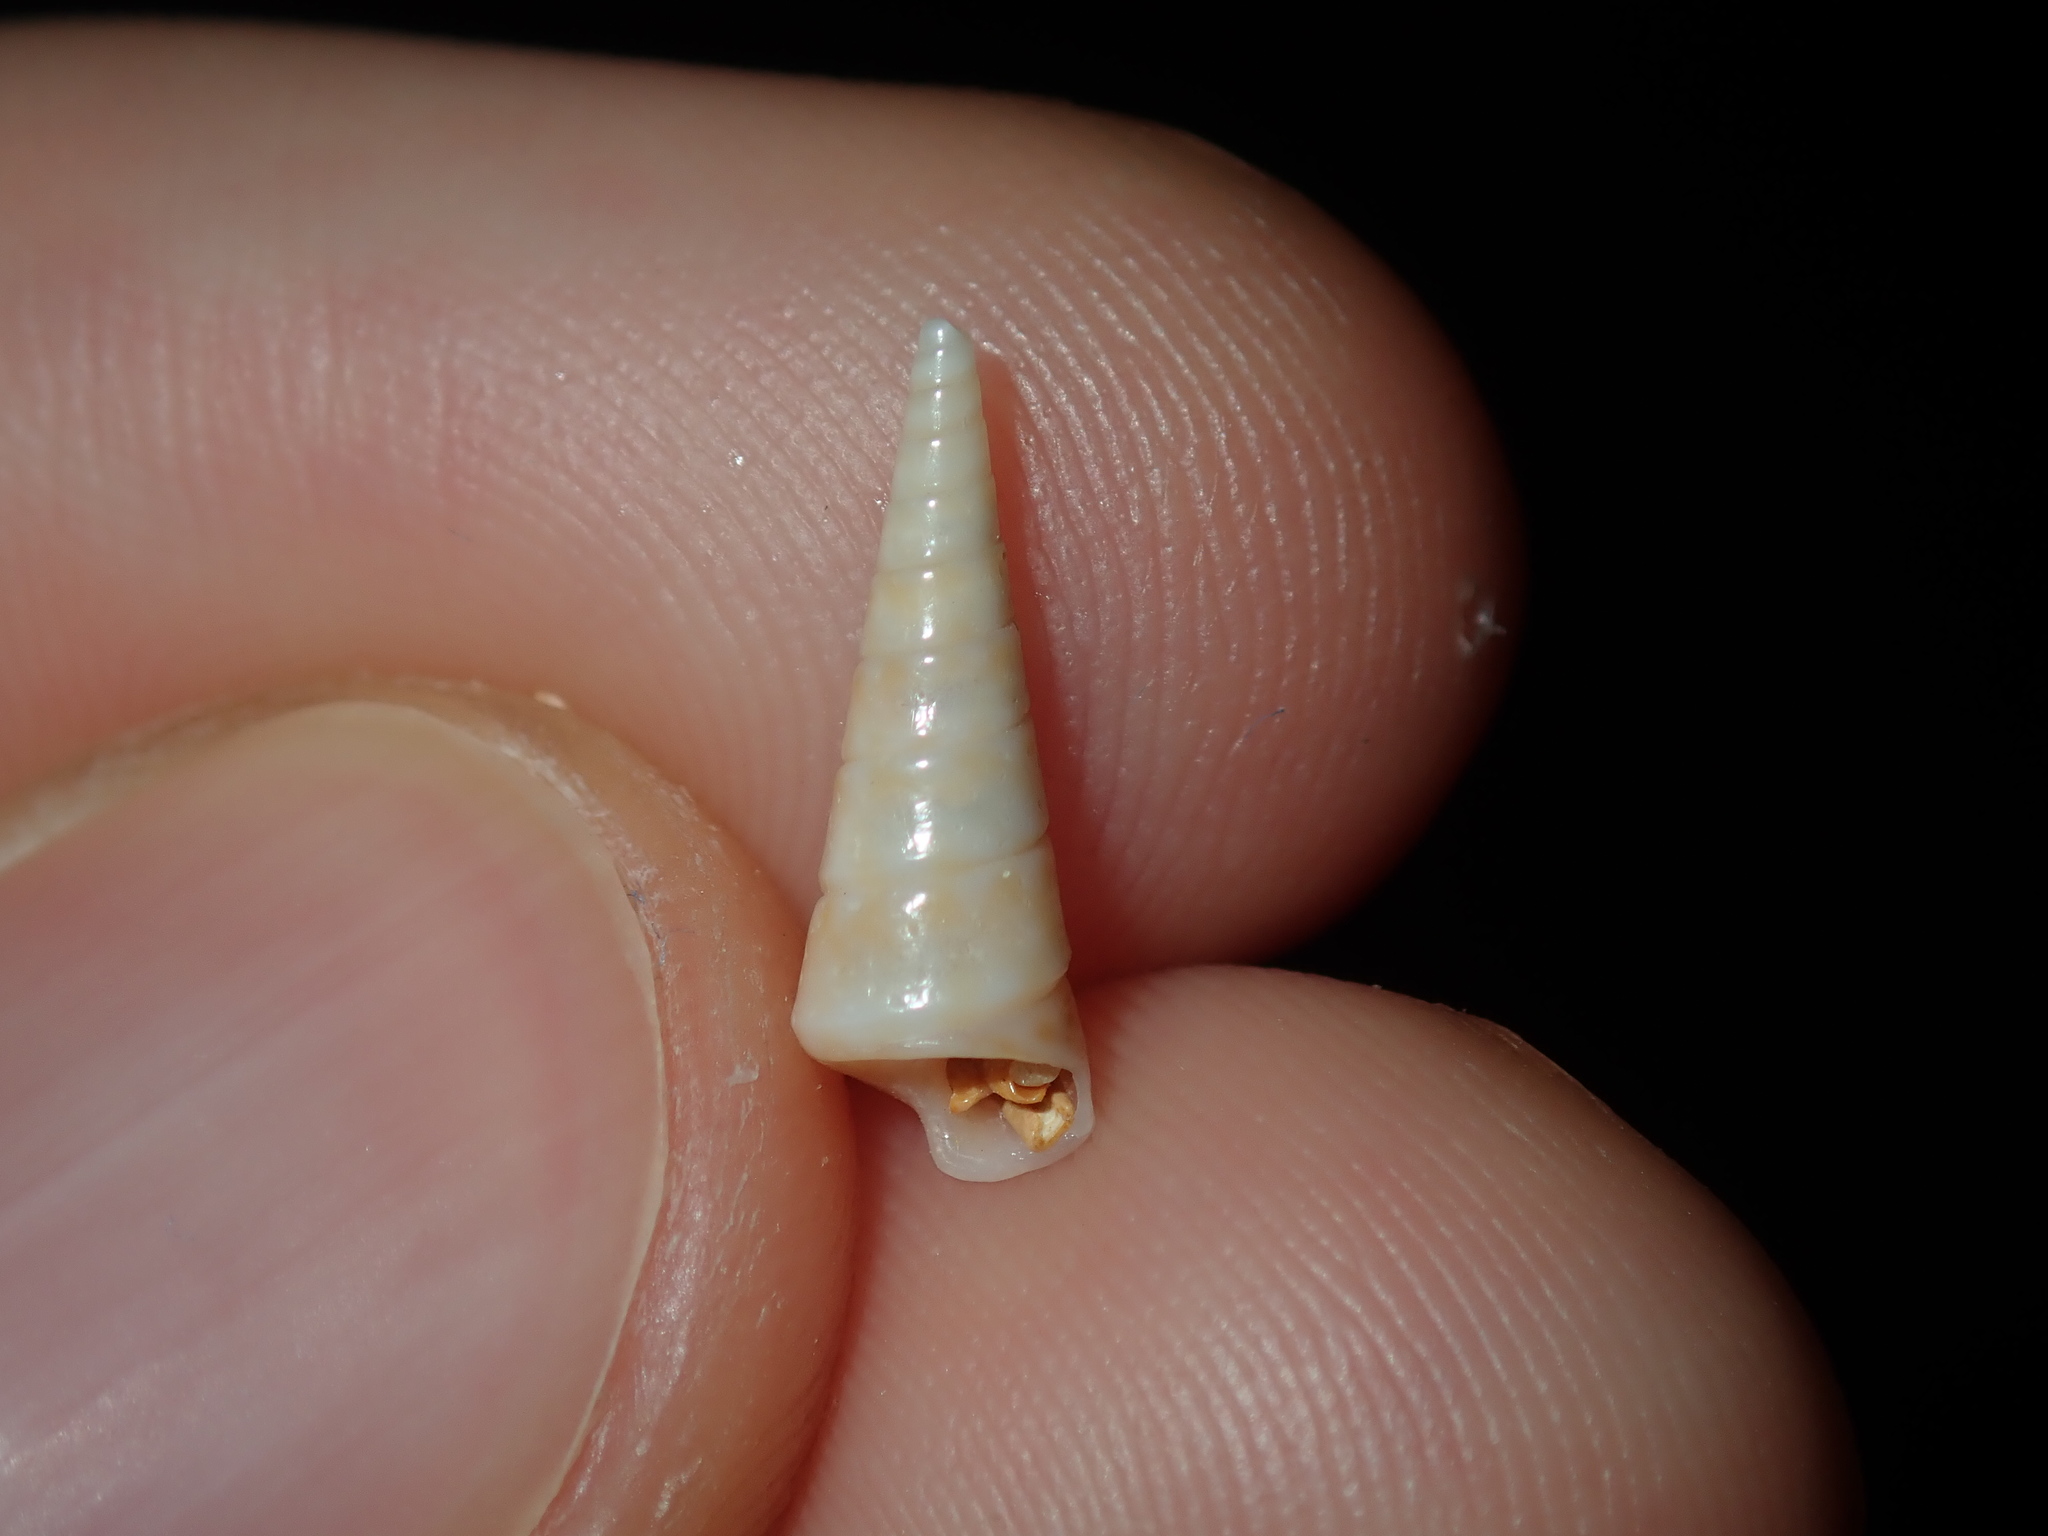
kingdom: Animalia
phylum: Mollusca
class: Gastropoda
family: Turritellidae
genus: Colpospira
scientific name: Colpospira guillaumei
